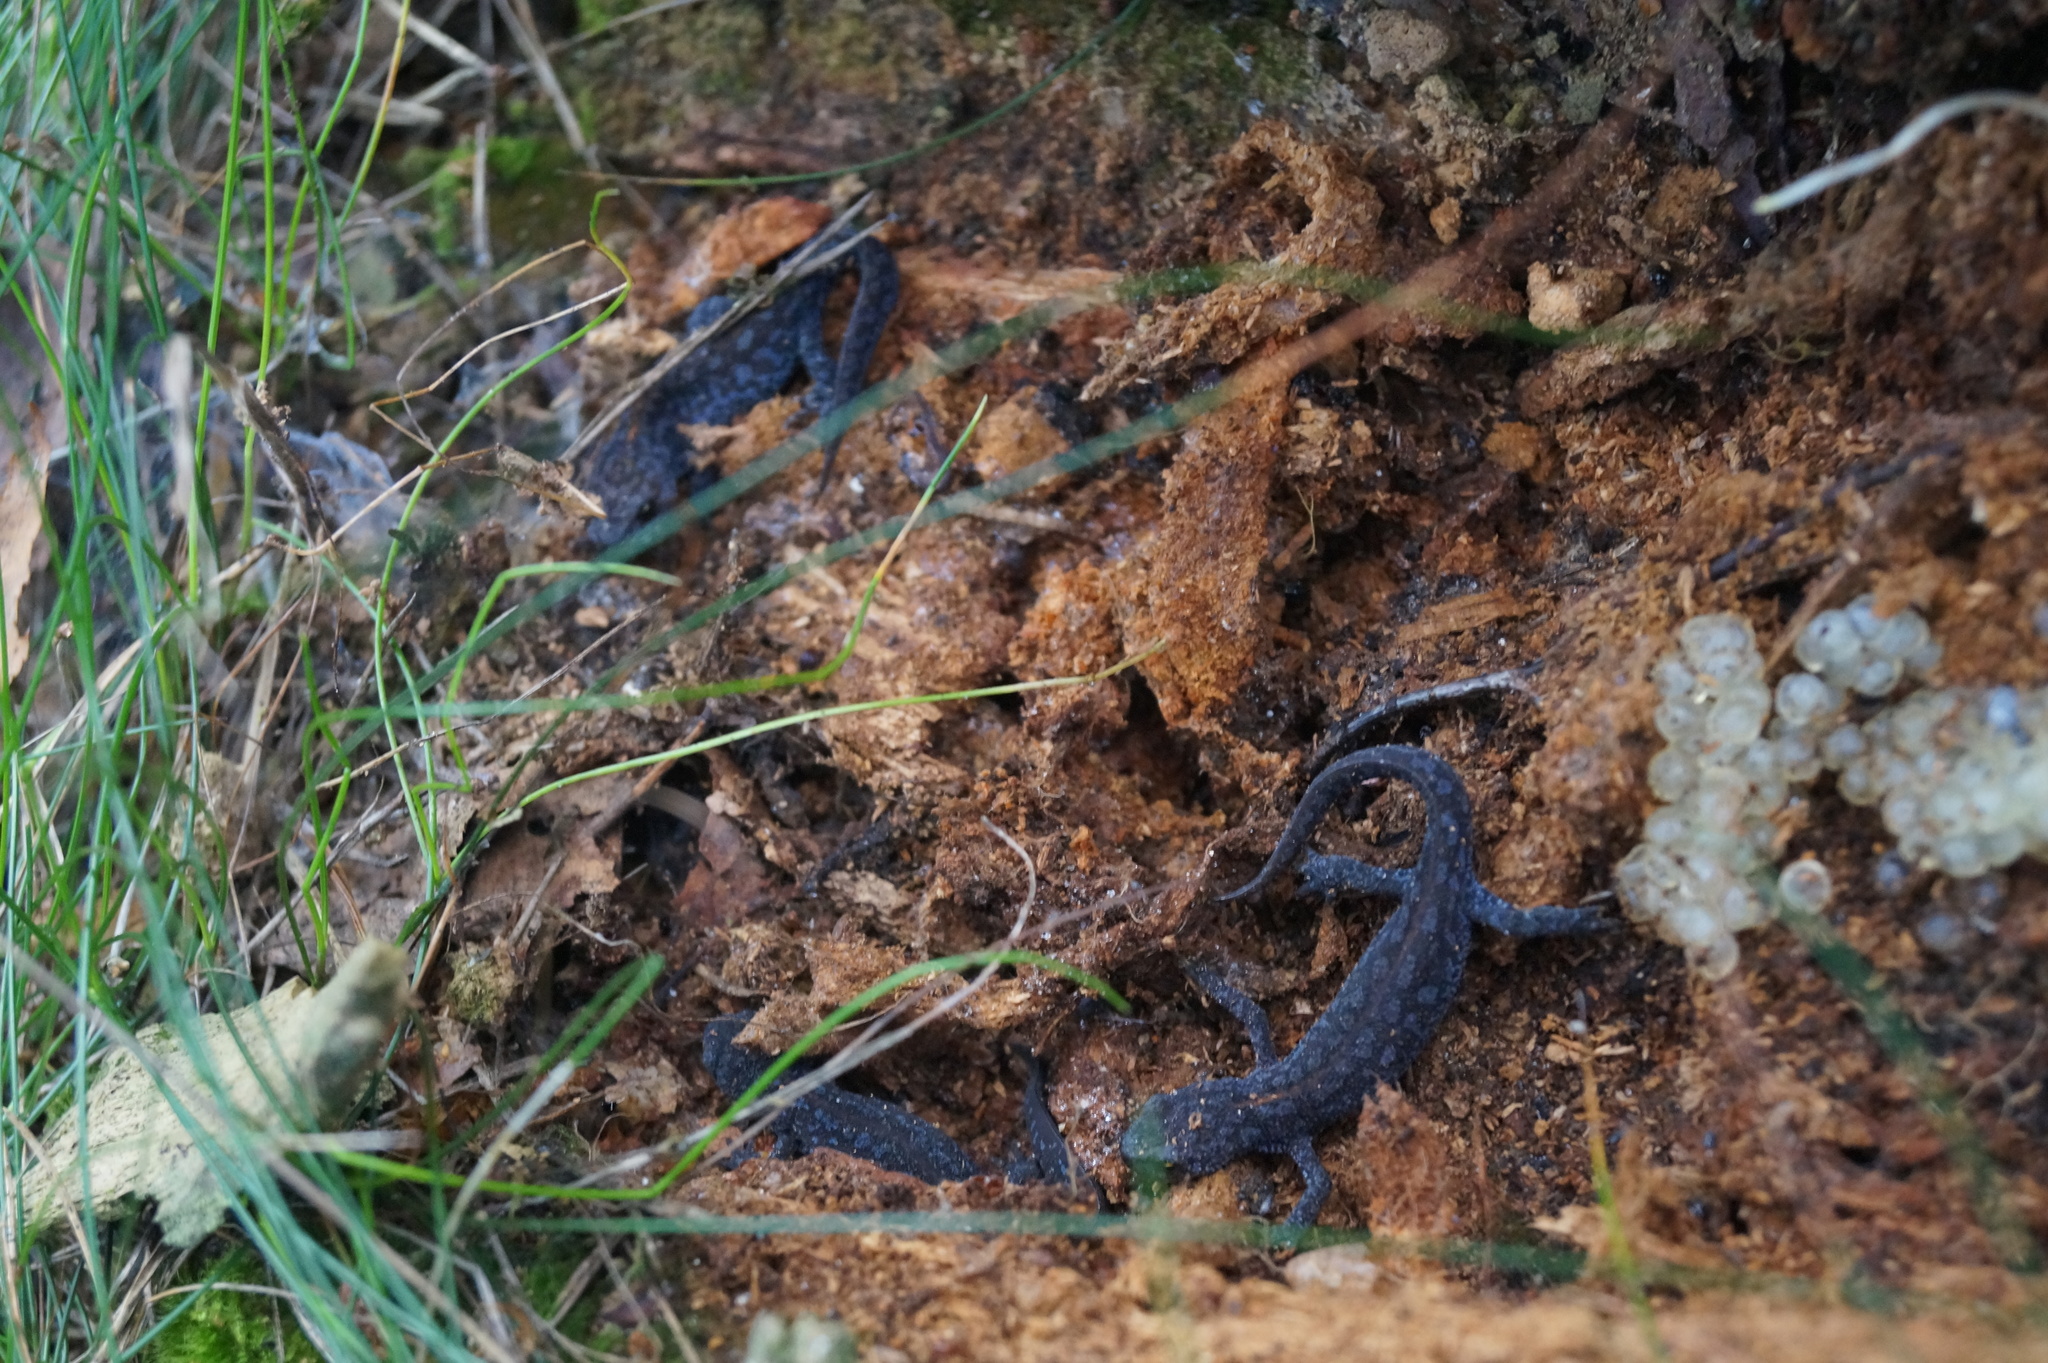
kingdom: Animalia
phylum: Chordata
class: Amphibia
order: Caudata
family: Salamandridae
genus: Ichthyosaura
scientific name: Ichthyosaura alpestris
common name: Alpine newt
